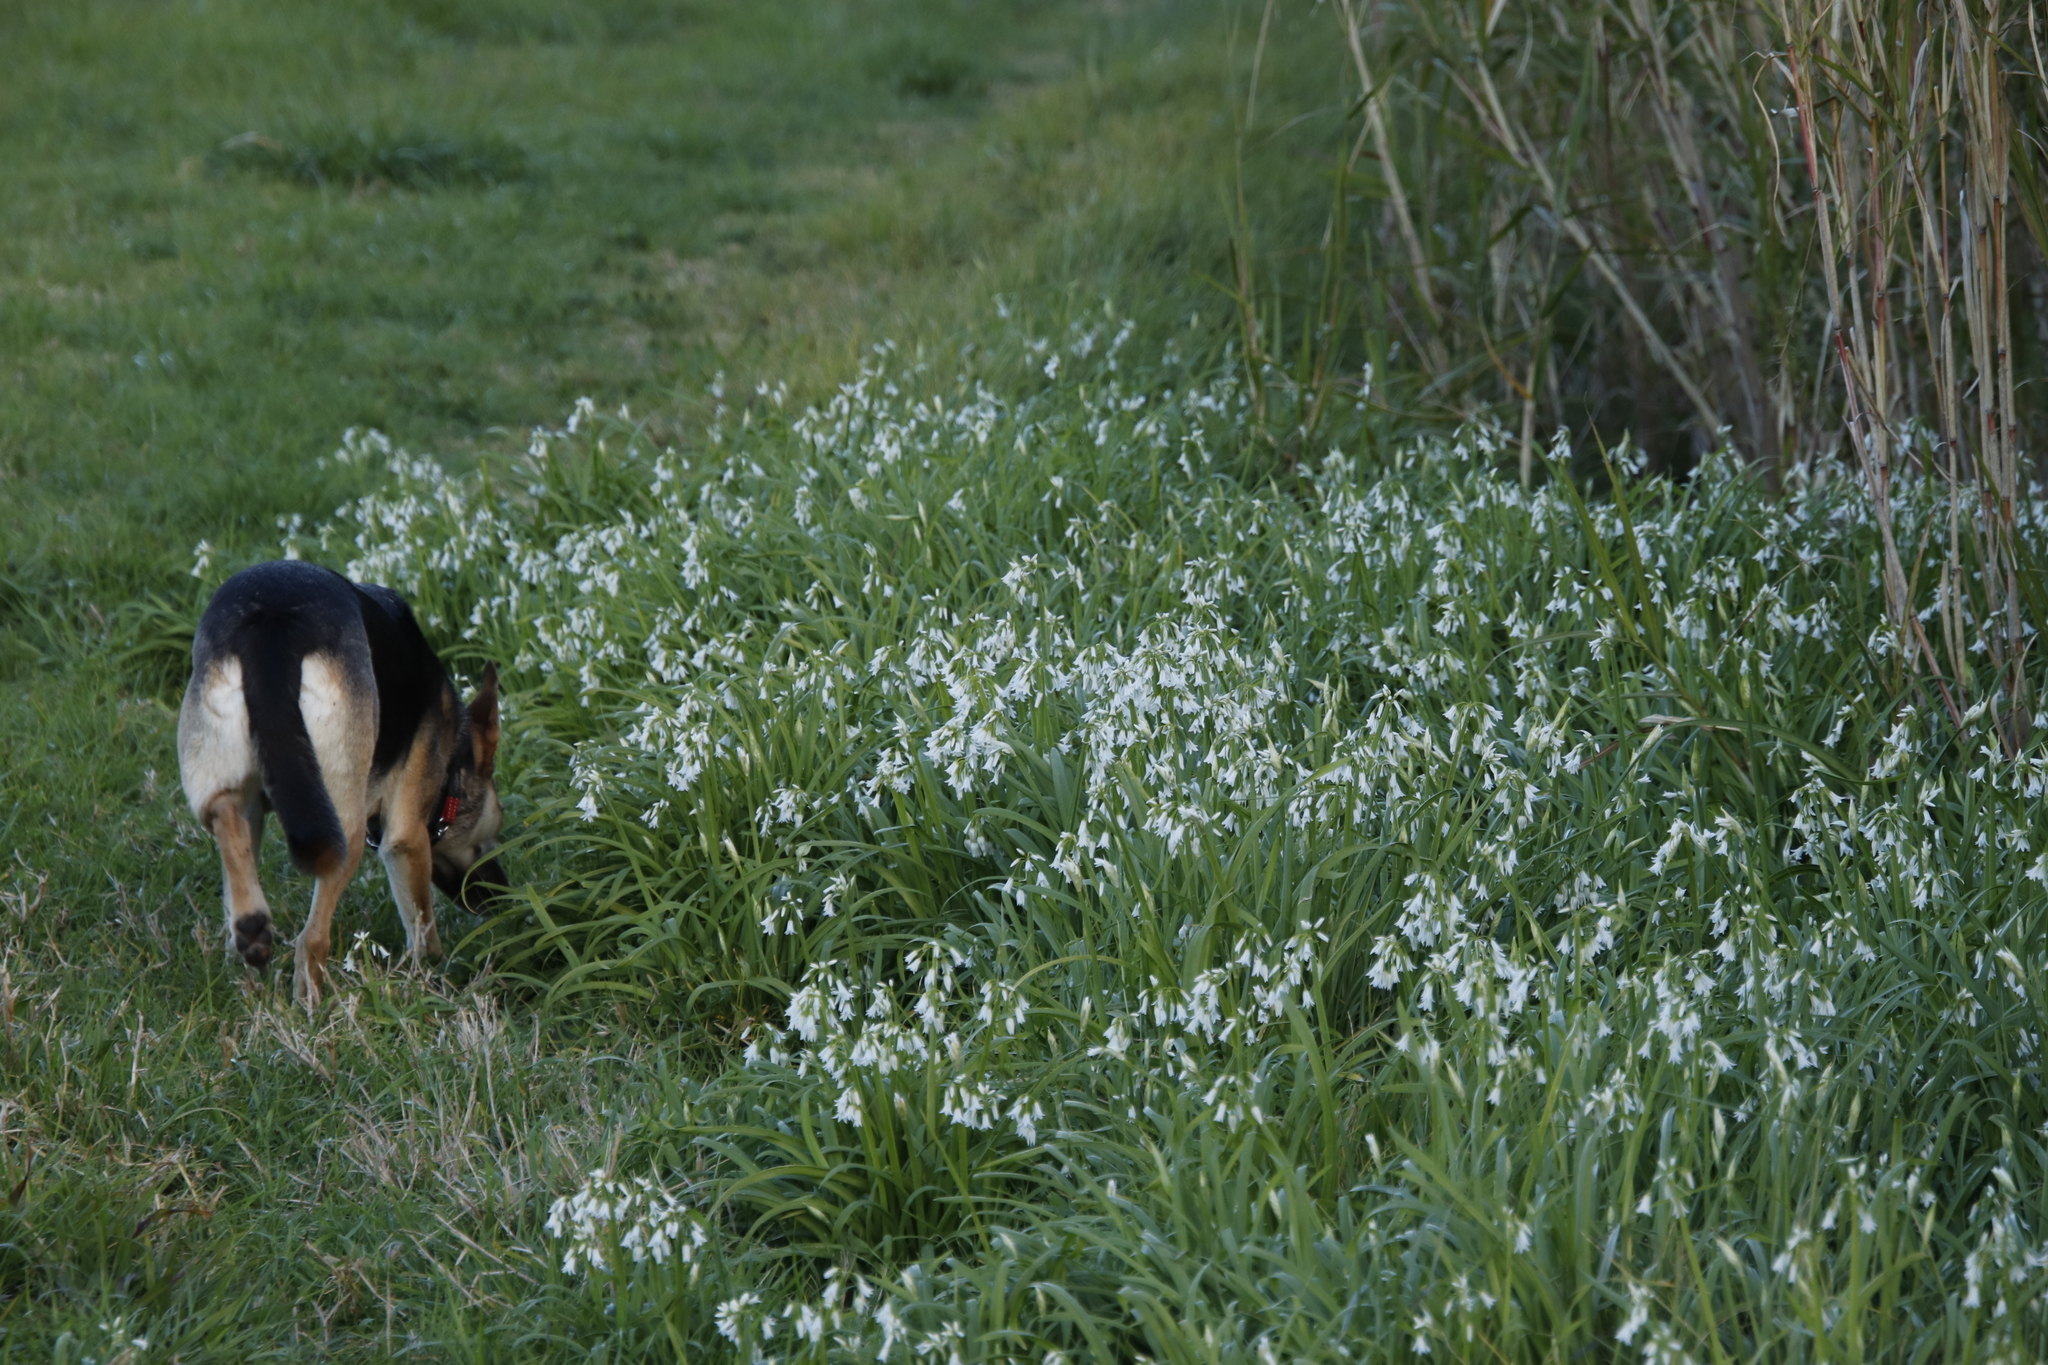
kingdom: Plantae
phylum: Tracheophyta
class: Liliopsida
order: Asparagales
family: Amaryllidaceae
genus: Allium
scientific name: Allium triquetrum
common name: Three-cornered garlic
